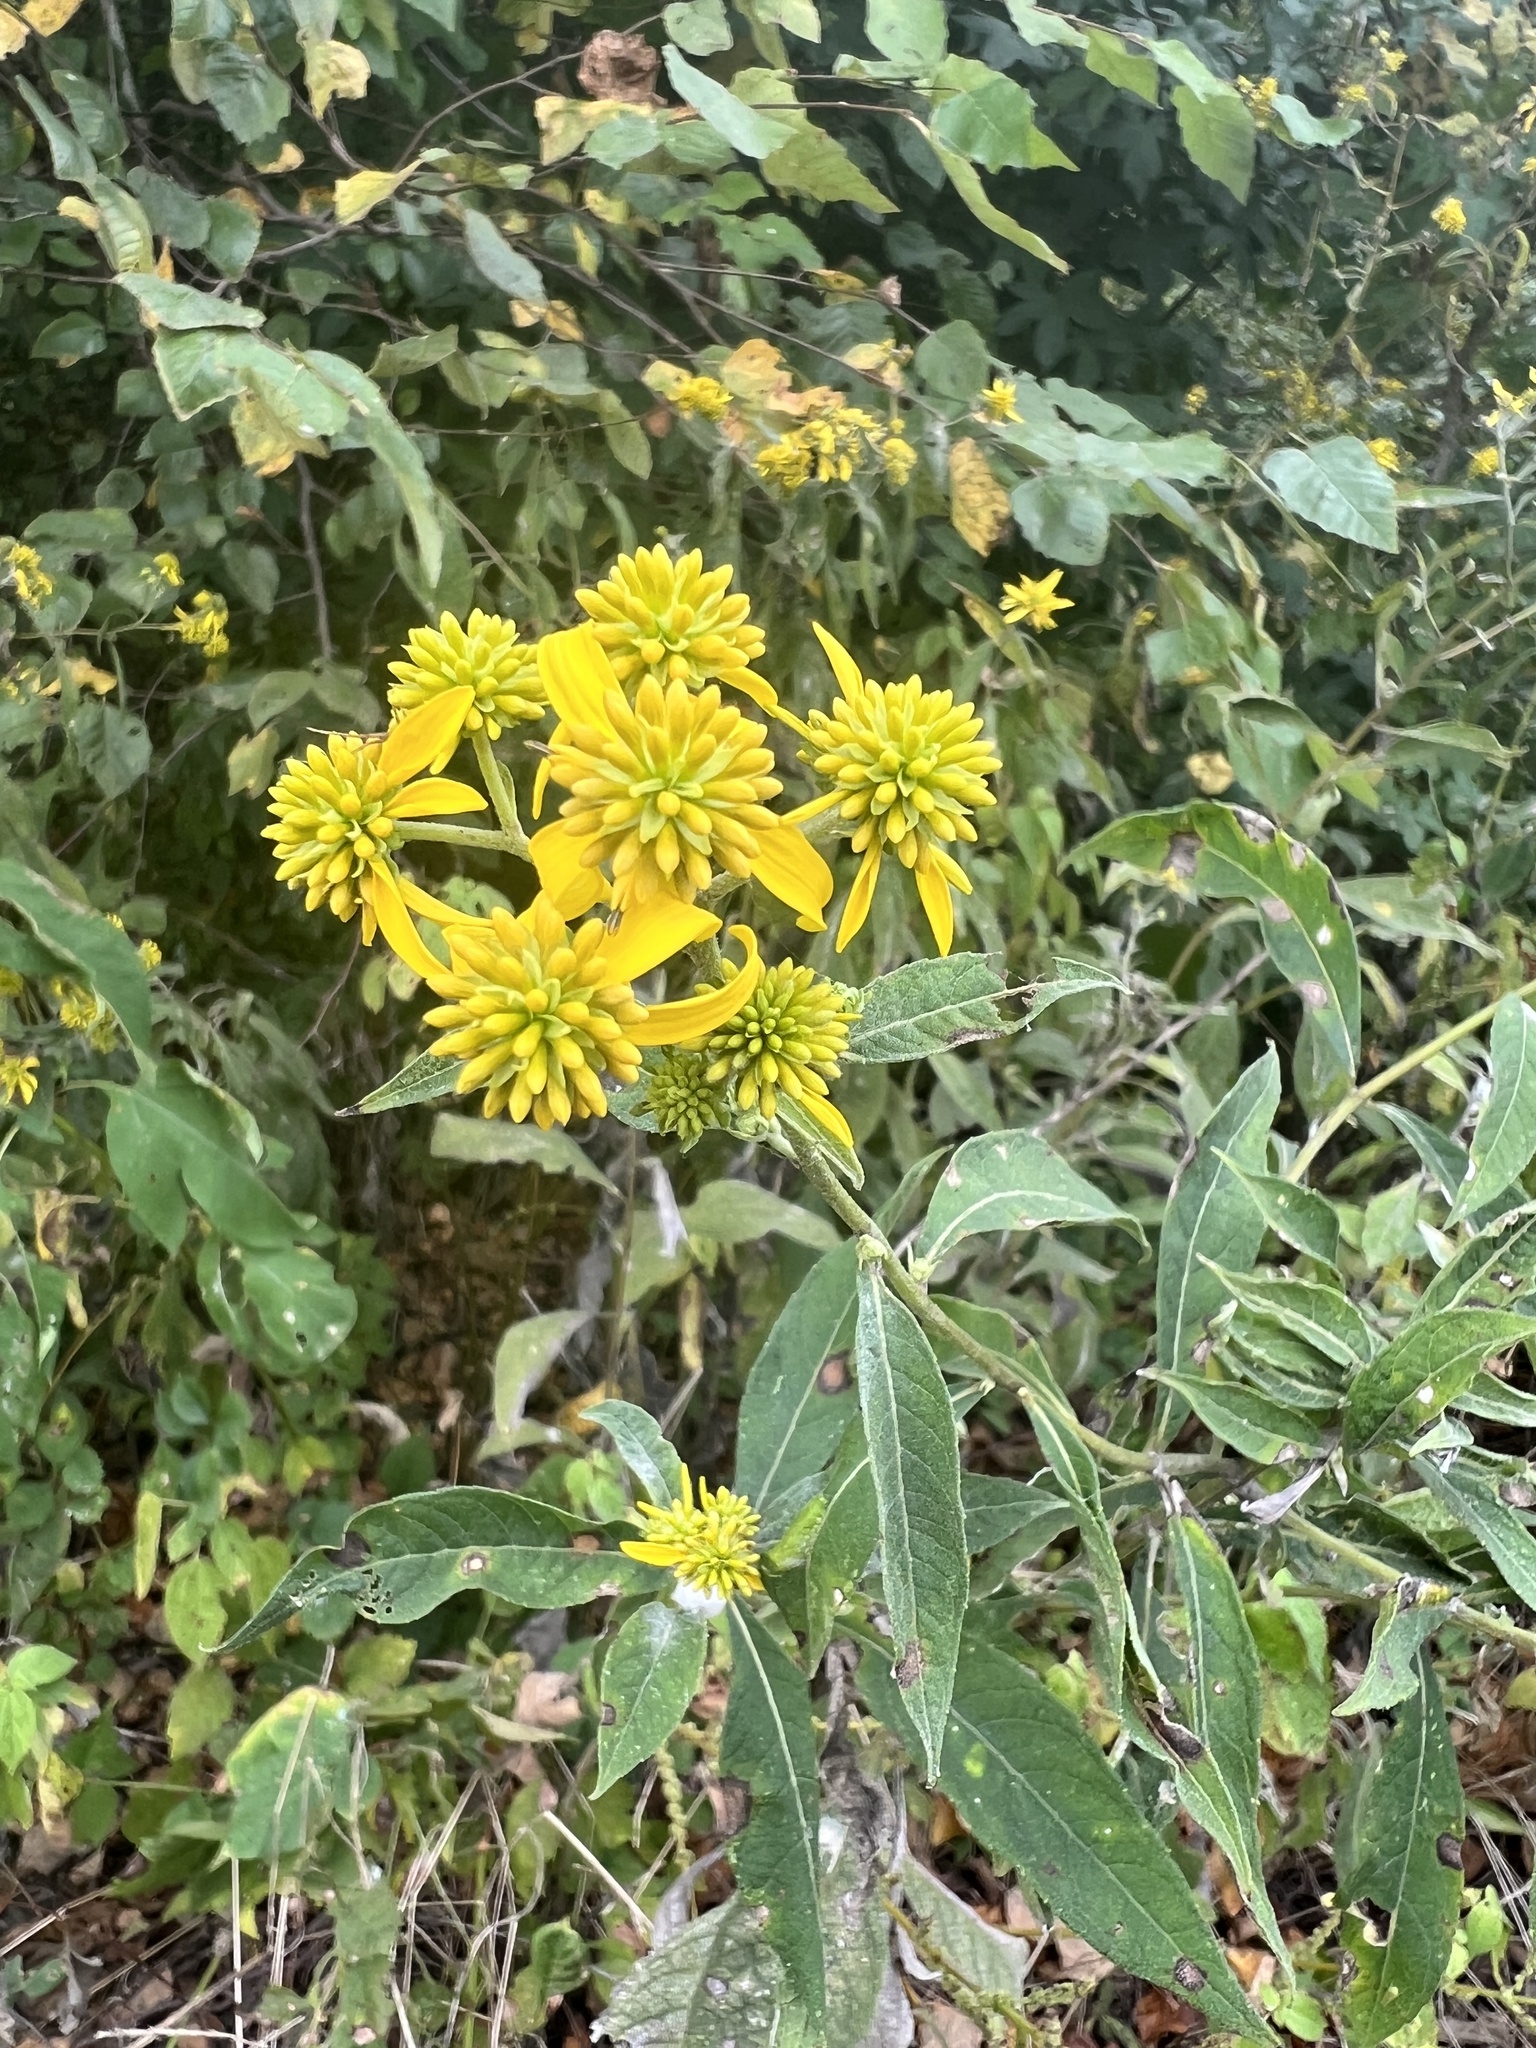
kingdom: Plantae
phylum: Tracheophyta
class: Magnoliopsida
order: Asterales
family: Asteraceae
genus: Verbesina
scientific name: Verbesina alternifolia
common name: Wingstem
